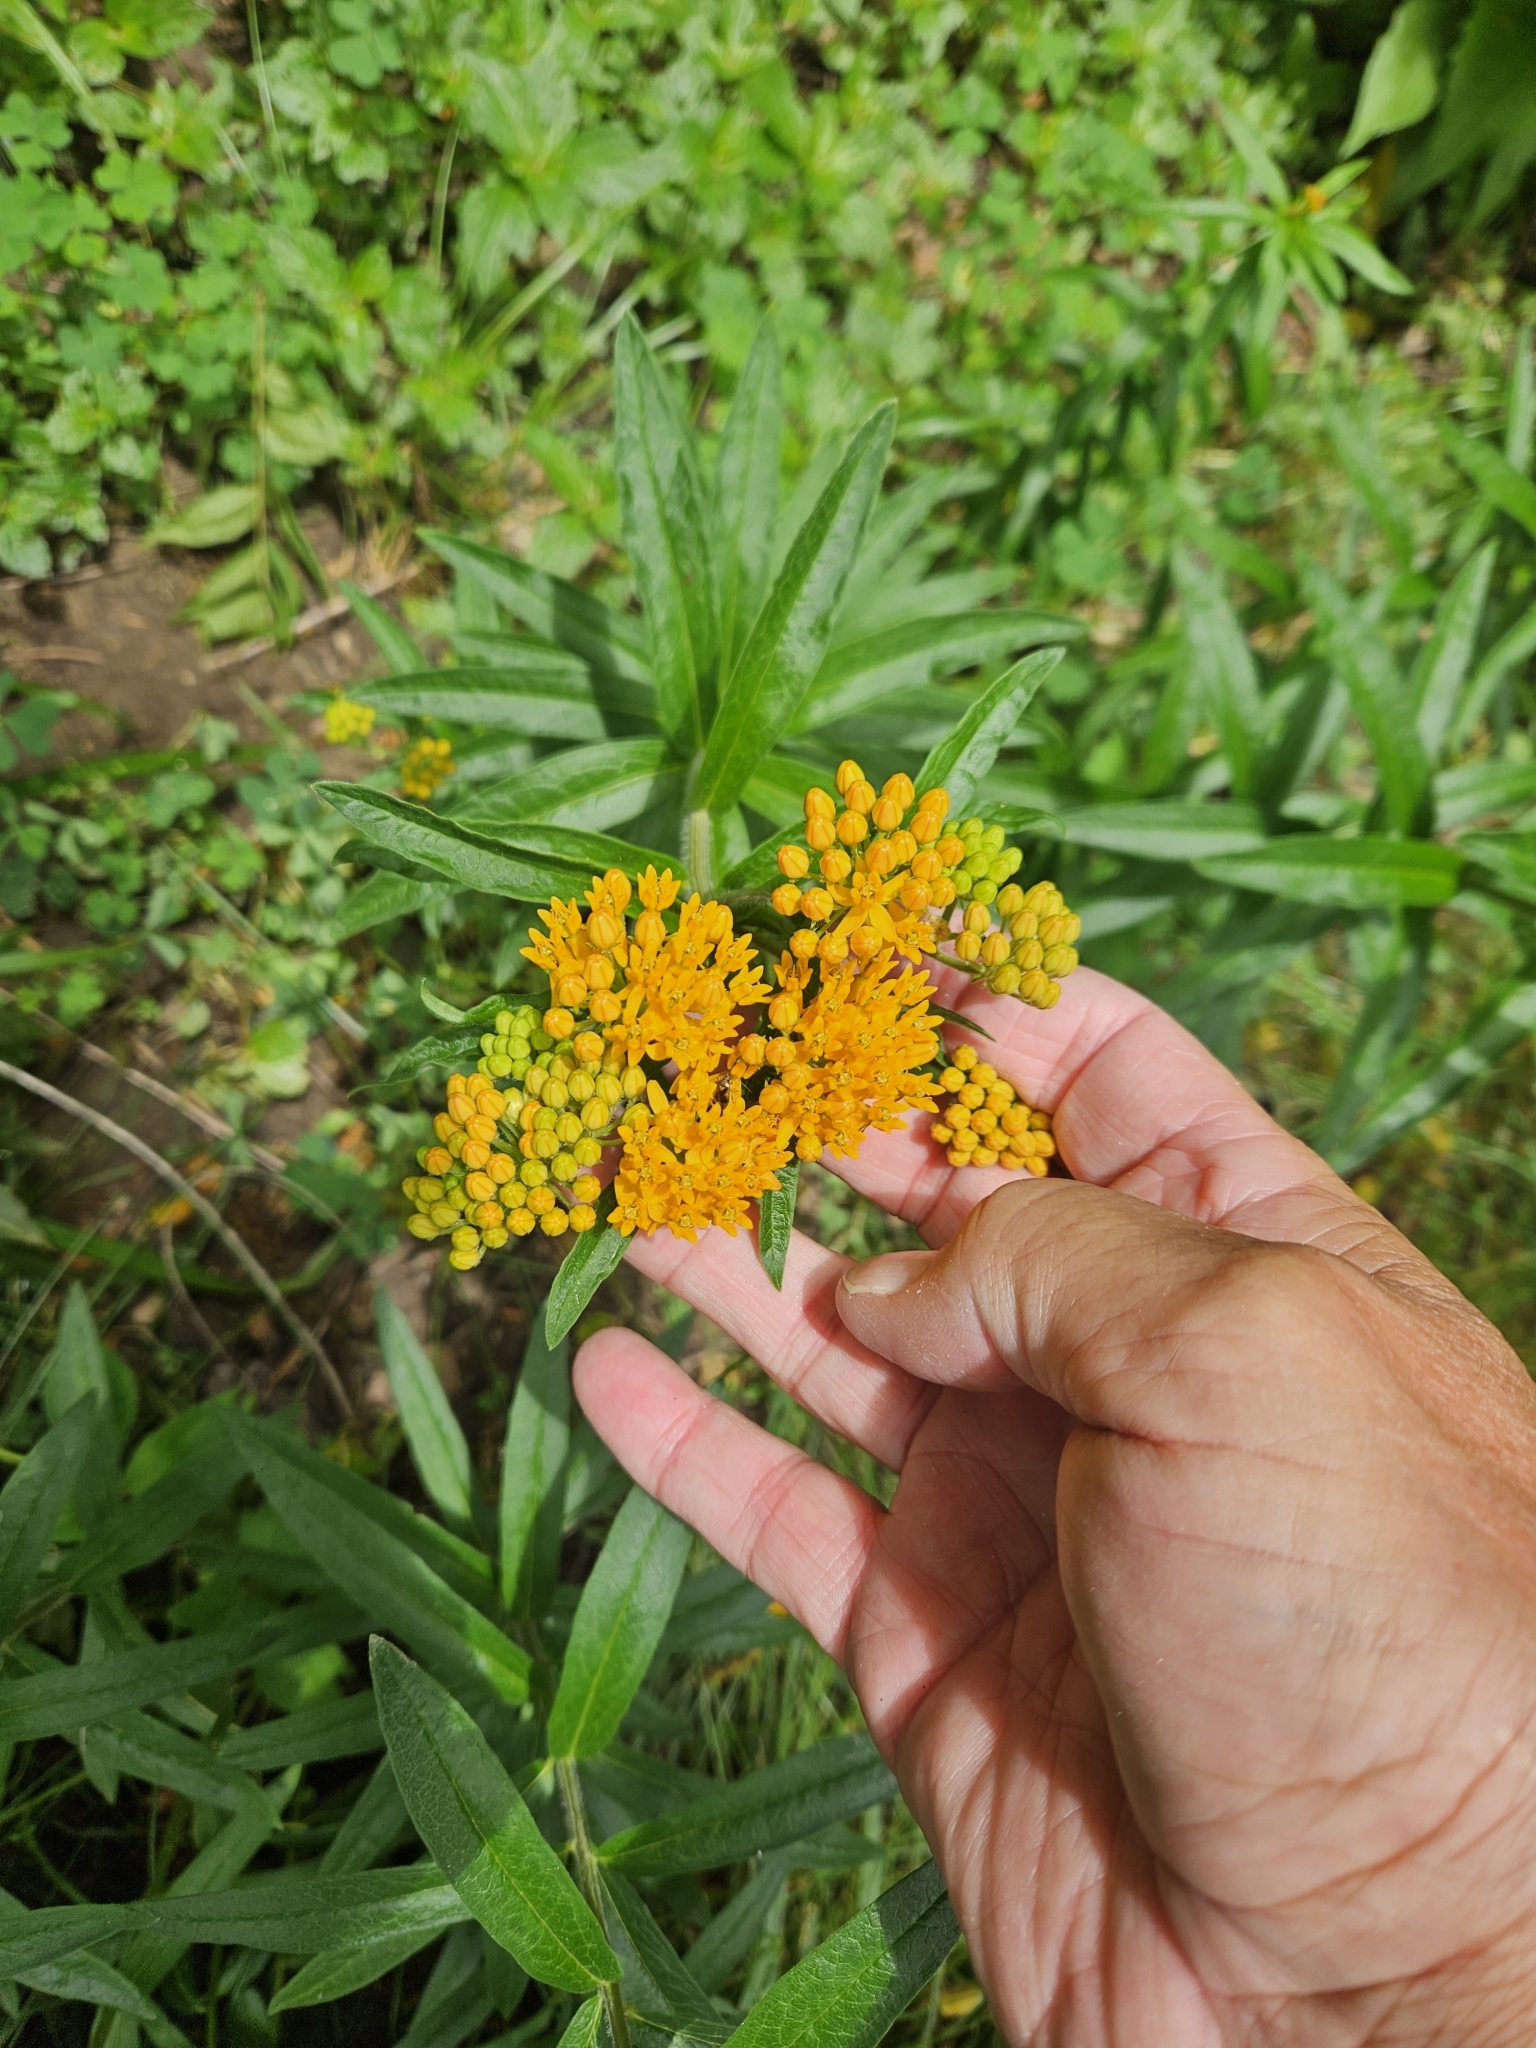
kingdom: Plantae
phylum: Tracheophyta
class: Magnoliopsida
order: Gentianales
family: Apocynaceae
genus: Asclepias
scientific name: Asclepias tuberosa
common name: Butterfly milkweed
